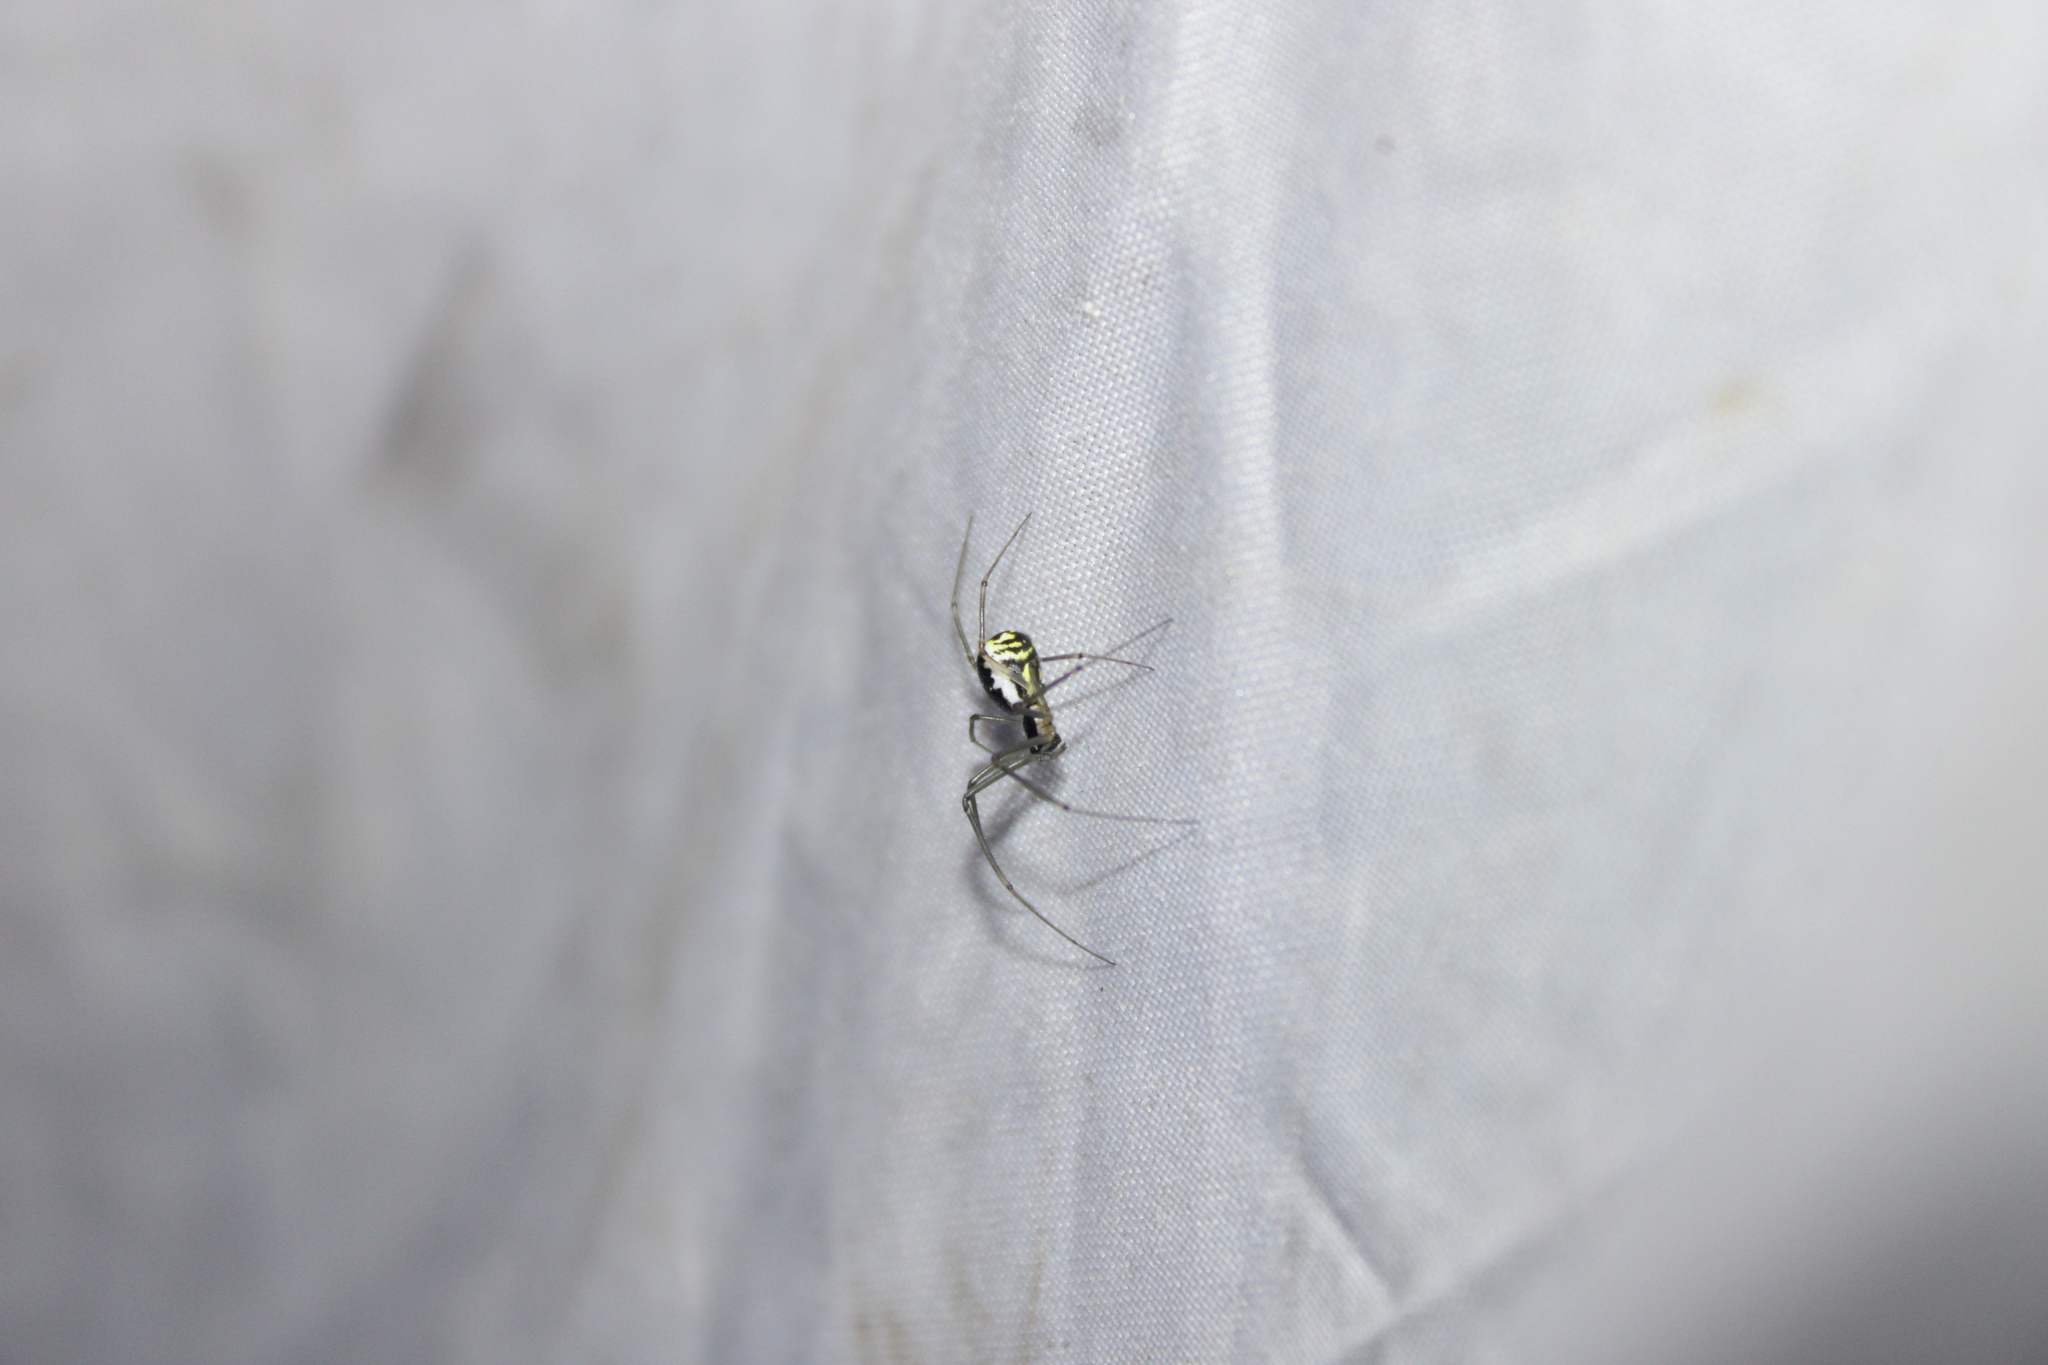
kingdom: Animalia
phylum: Arthropoda
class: Arachnida
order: Araneae
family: Linyphiidae
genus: Neriene
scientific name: Neriene radiata
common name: Filmy dome spider
